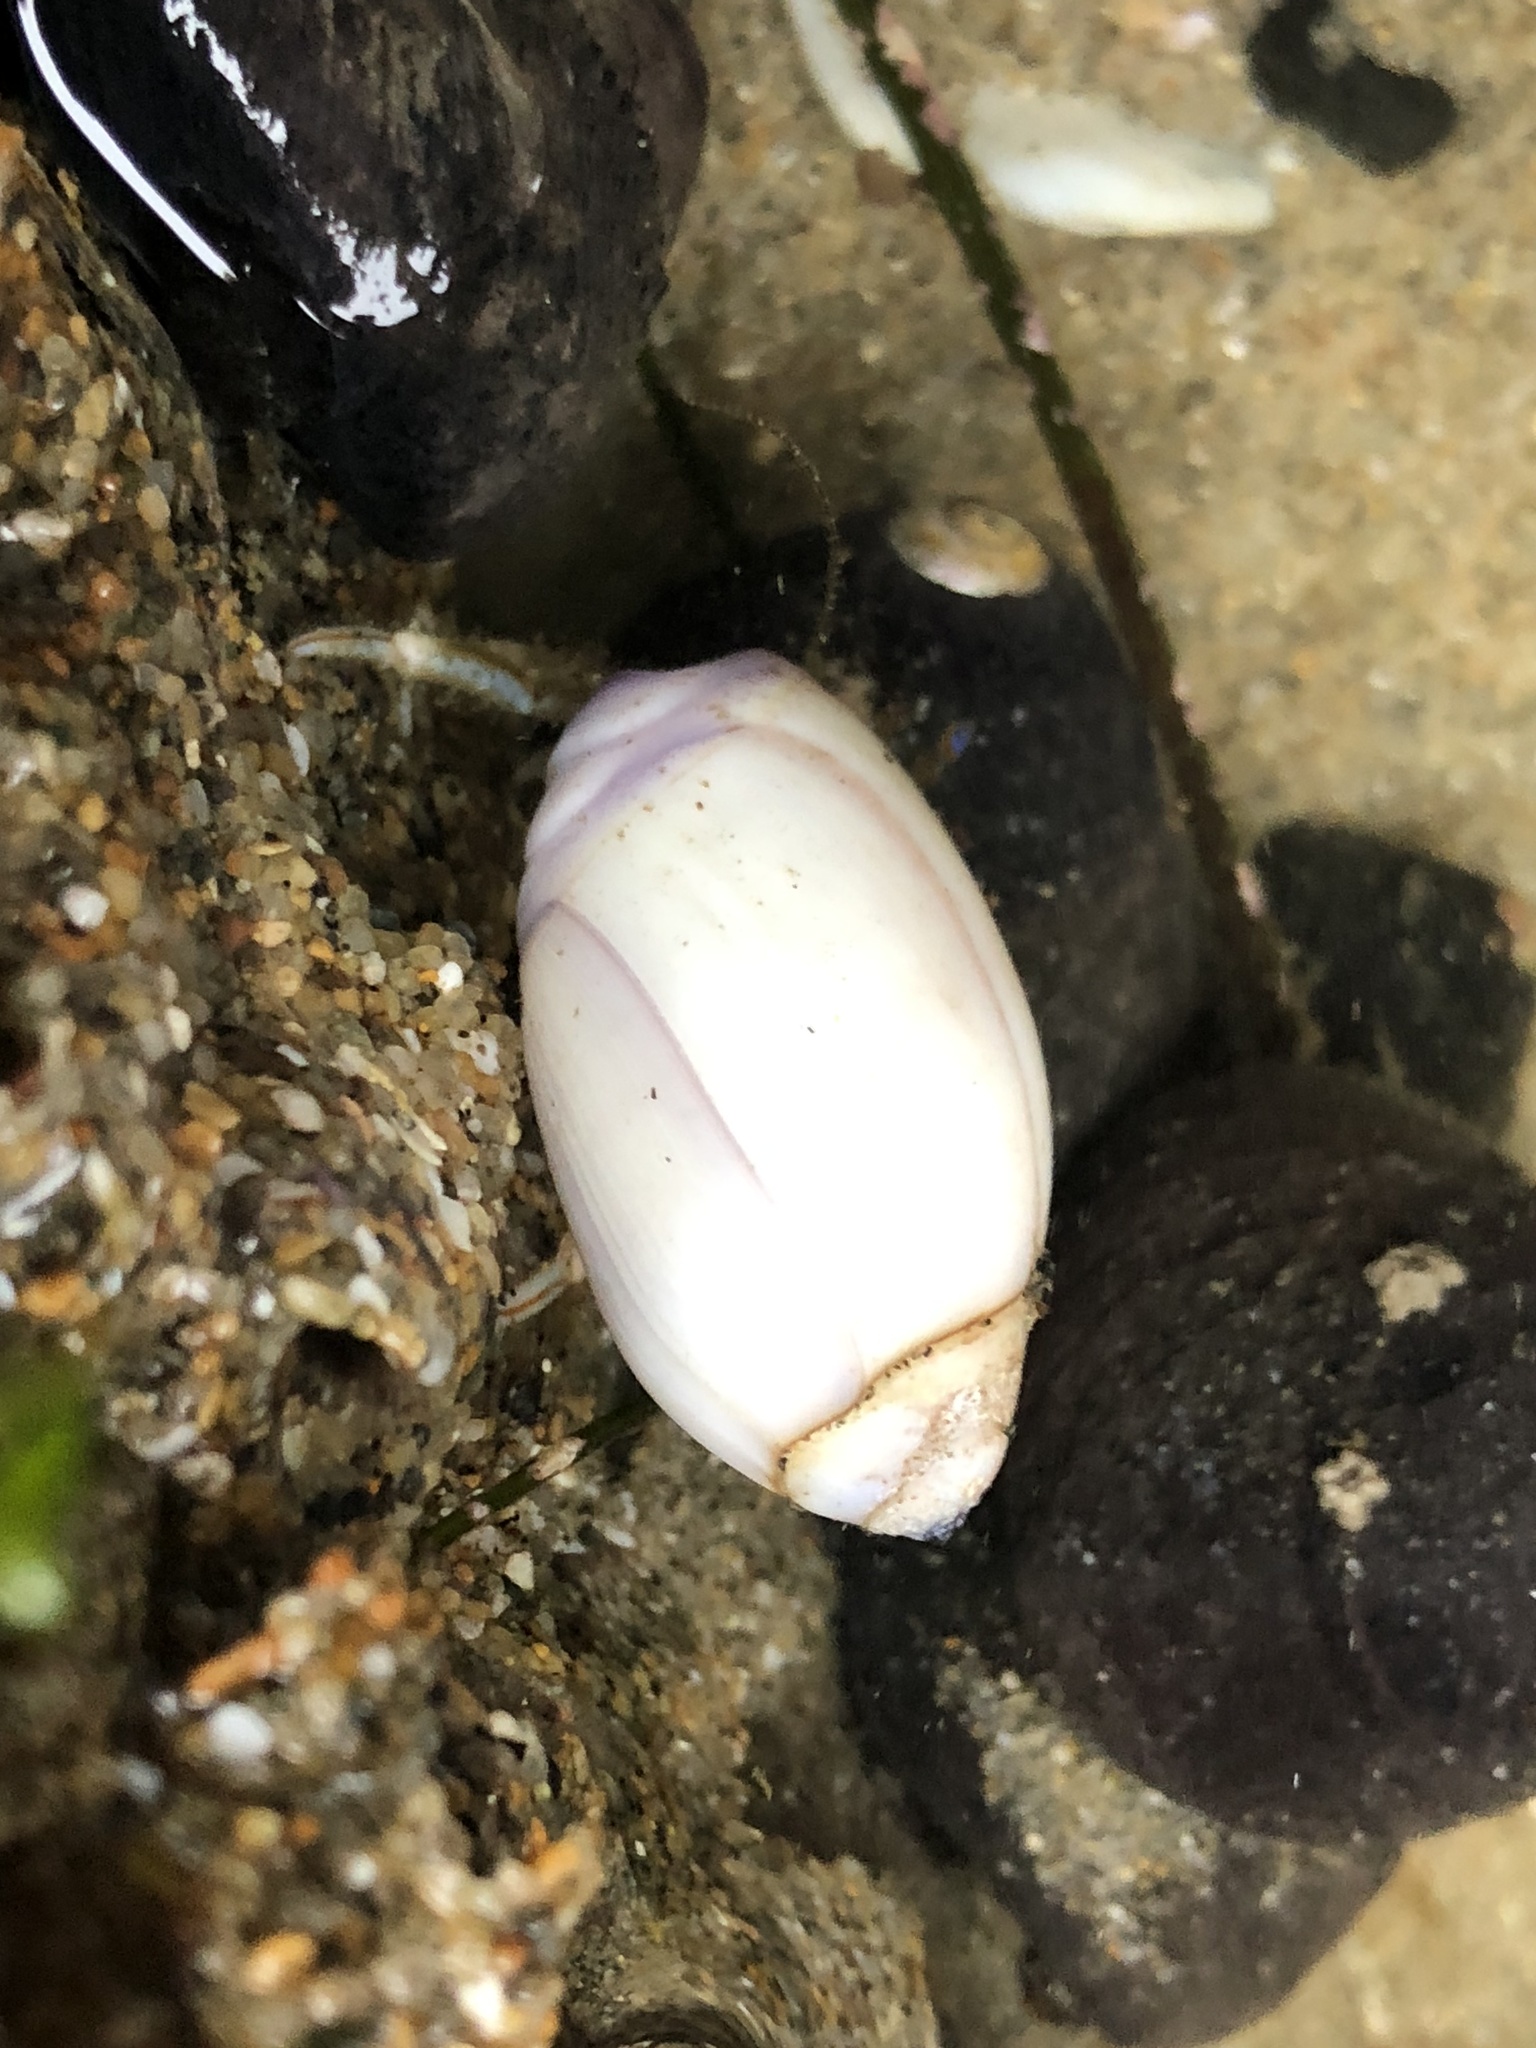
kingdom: Animalia
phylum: Mollusca
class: Gastropoda
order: Neogastropoda
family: Olividae
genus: Callianax
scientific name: Callianax biplicata
